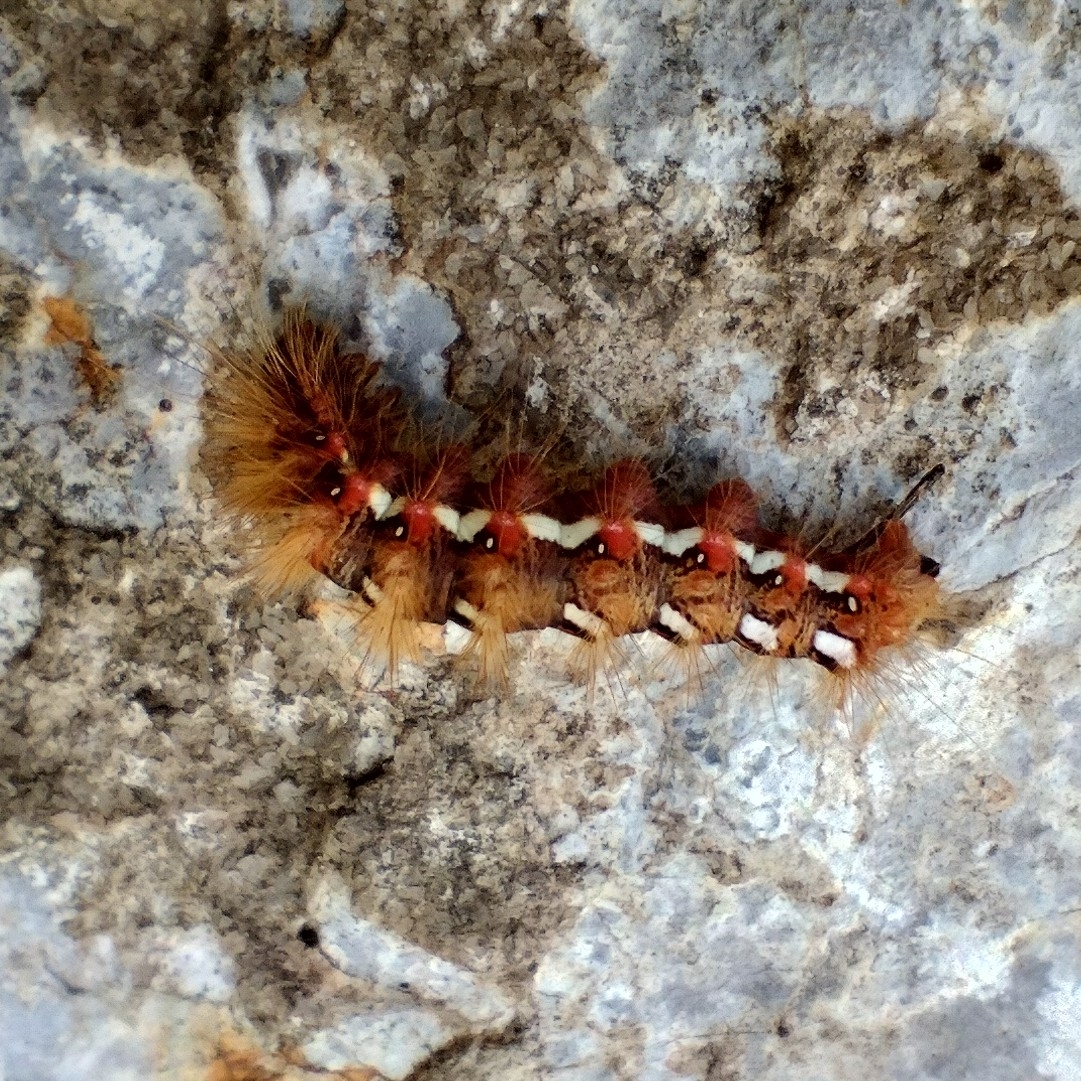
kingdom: Animalia
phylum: Arthropoda
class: Insecta
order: Lepidoptera
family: Noctuidae
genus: Acronicta
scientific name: Acronicta rumicis
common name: Knot grass
